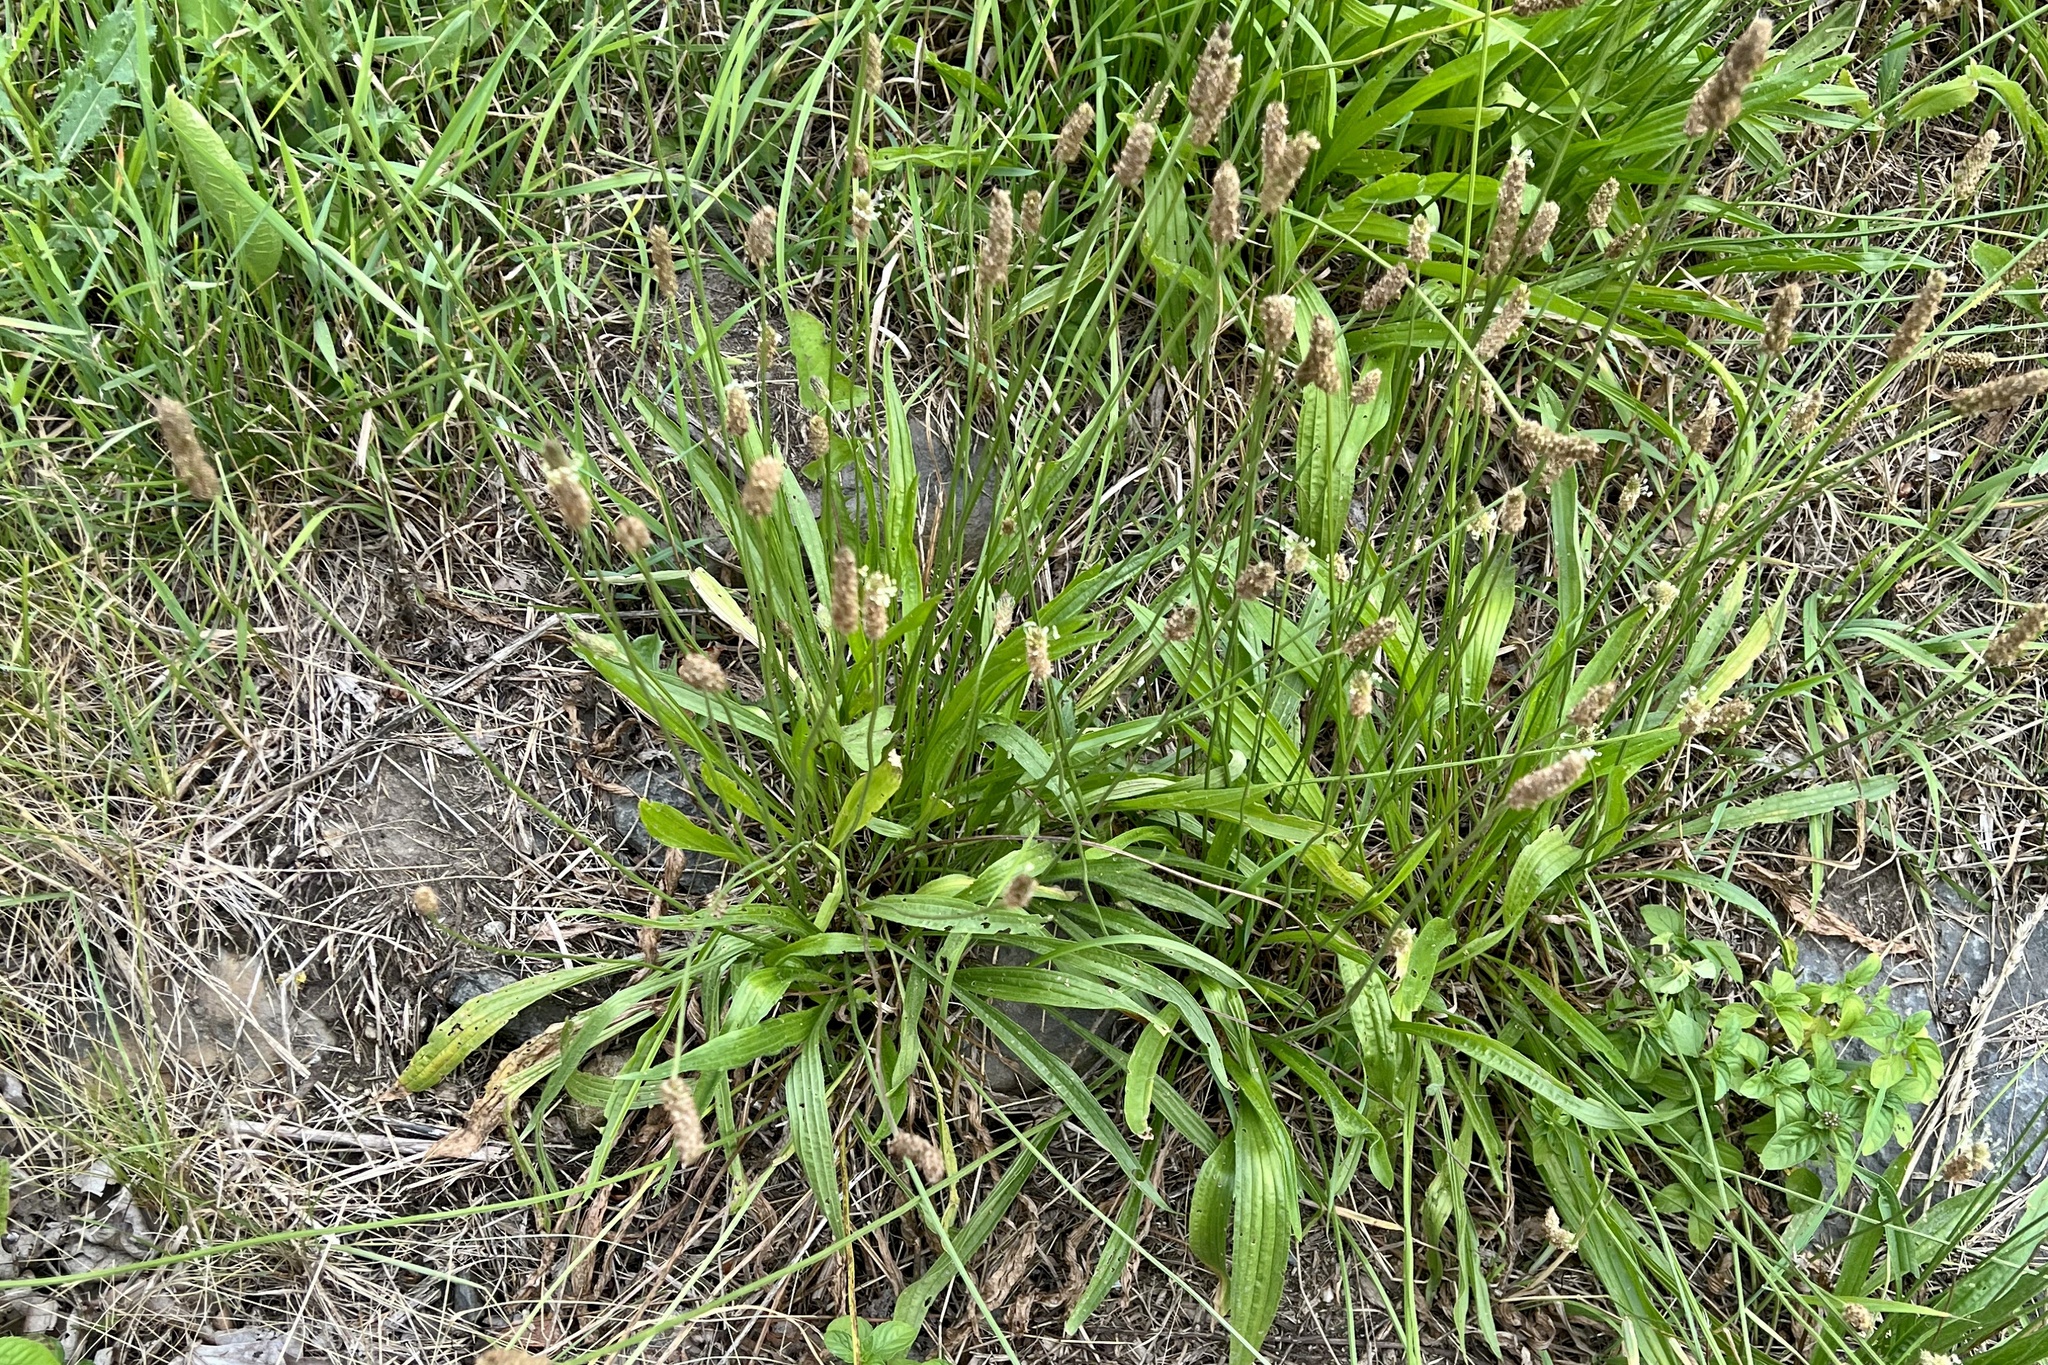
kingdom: Plantae
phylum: Tracheophyta
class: Magnoliopsida
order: Lamiales
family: Plantaginaceae
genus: Plantago
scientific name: Plantago lanceolata
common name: Ribwort plantain
